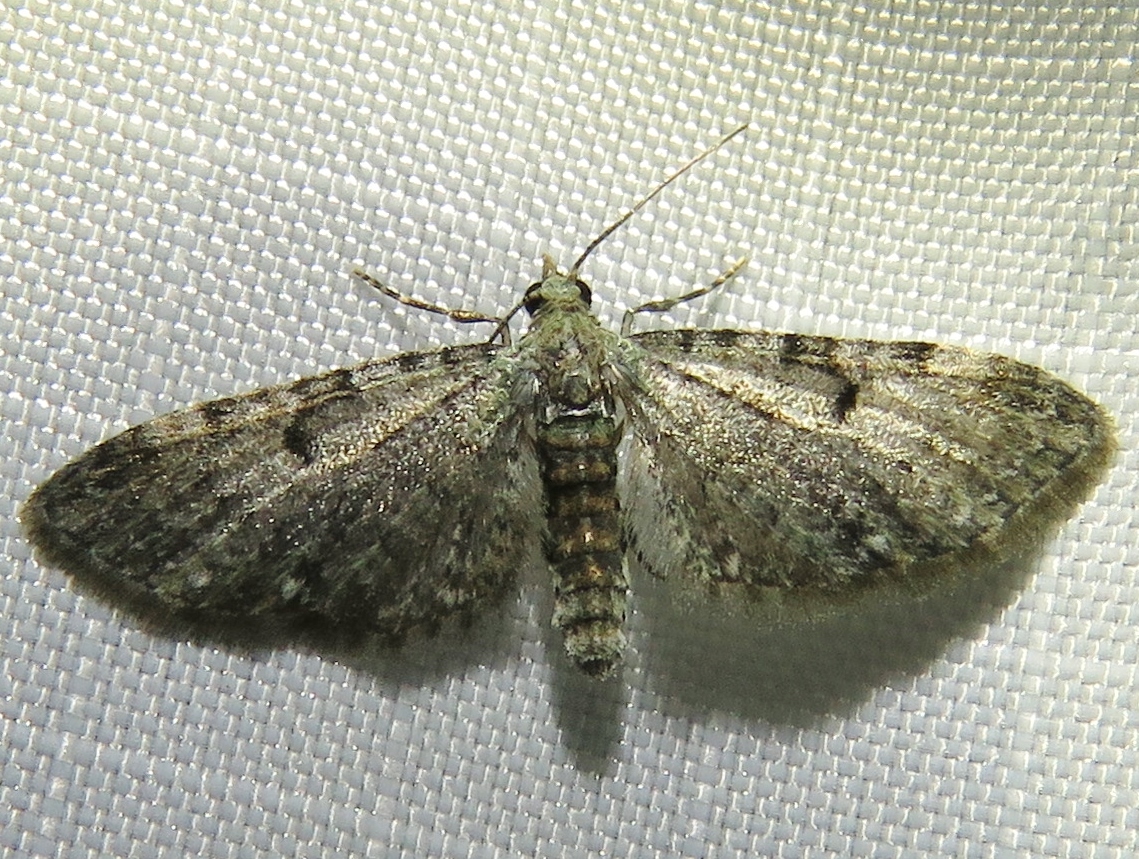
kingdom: Animalia
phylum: Arthropoda
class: Insecta
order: Lepidoptera
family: Geometridae
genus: Eupithecia
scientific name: Eupithecia miserulata
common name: Common eupithecia
